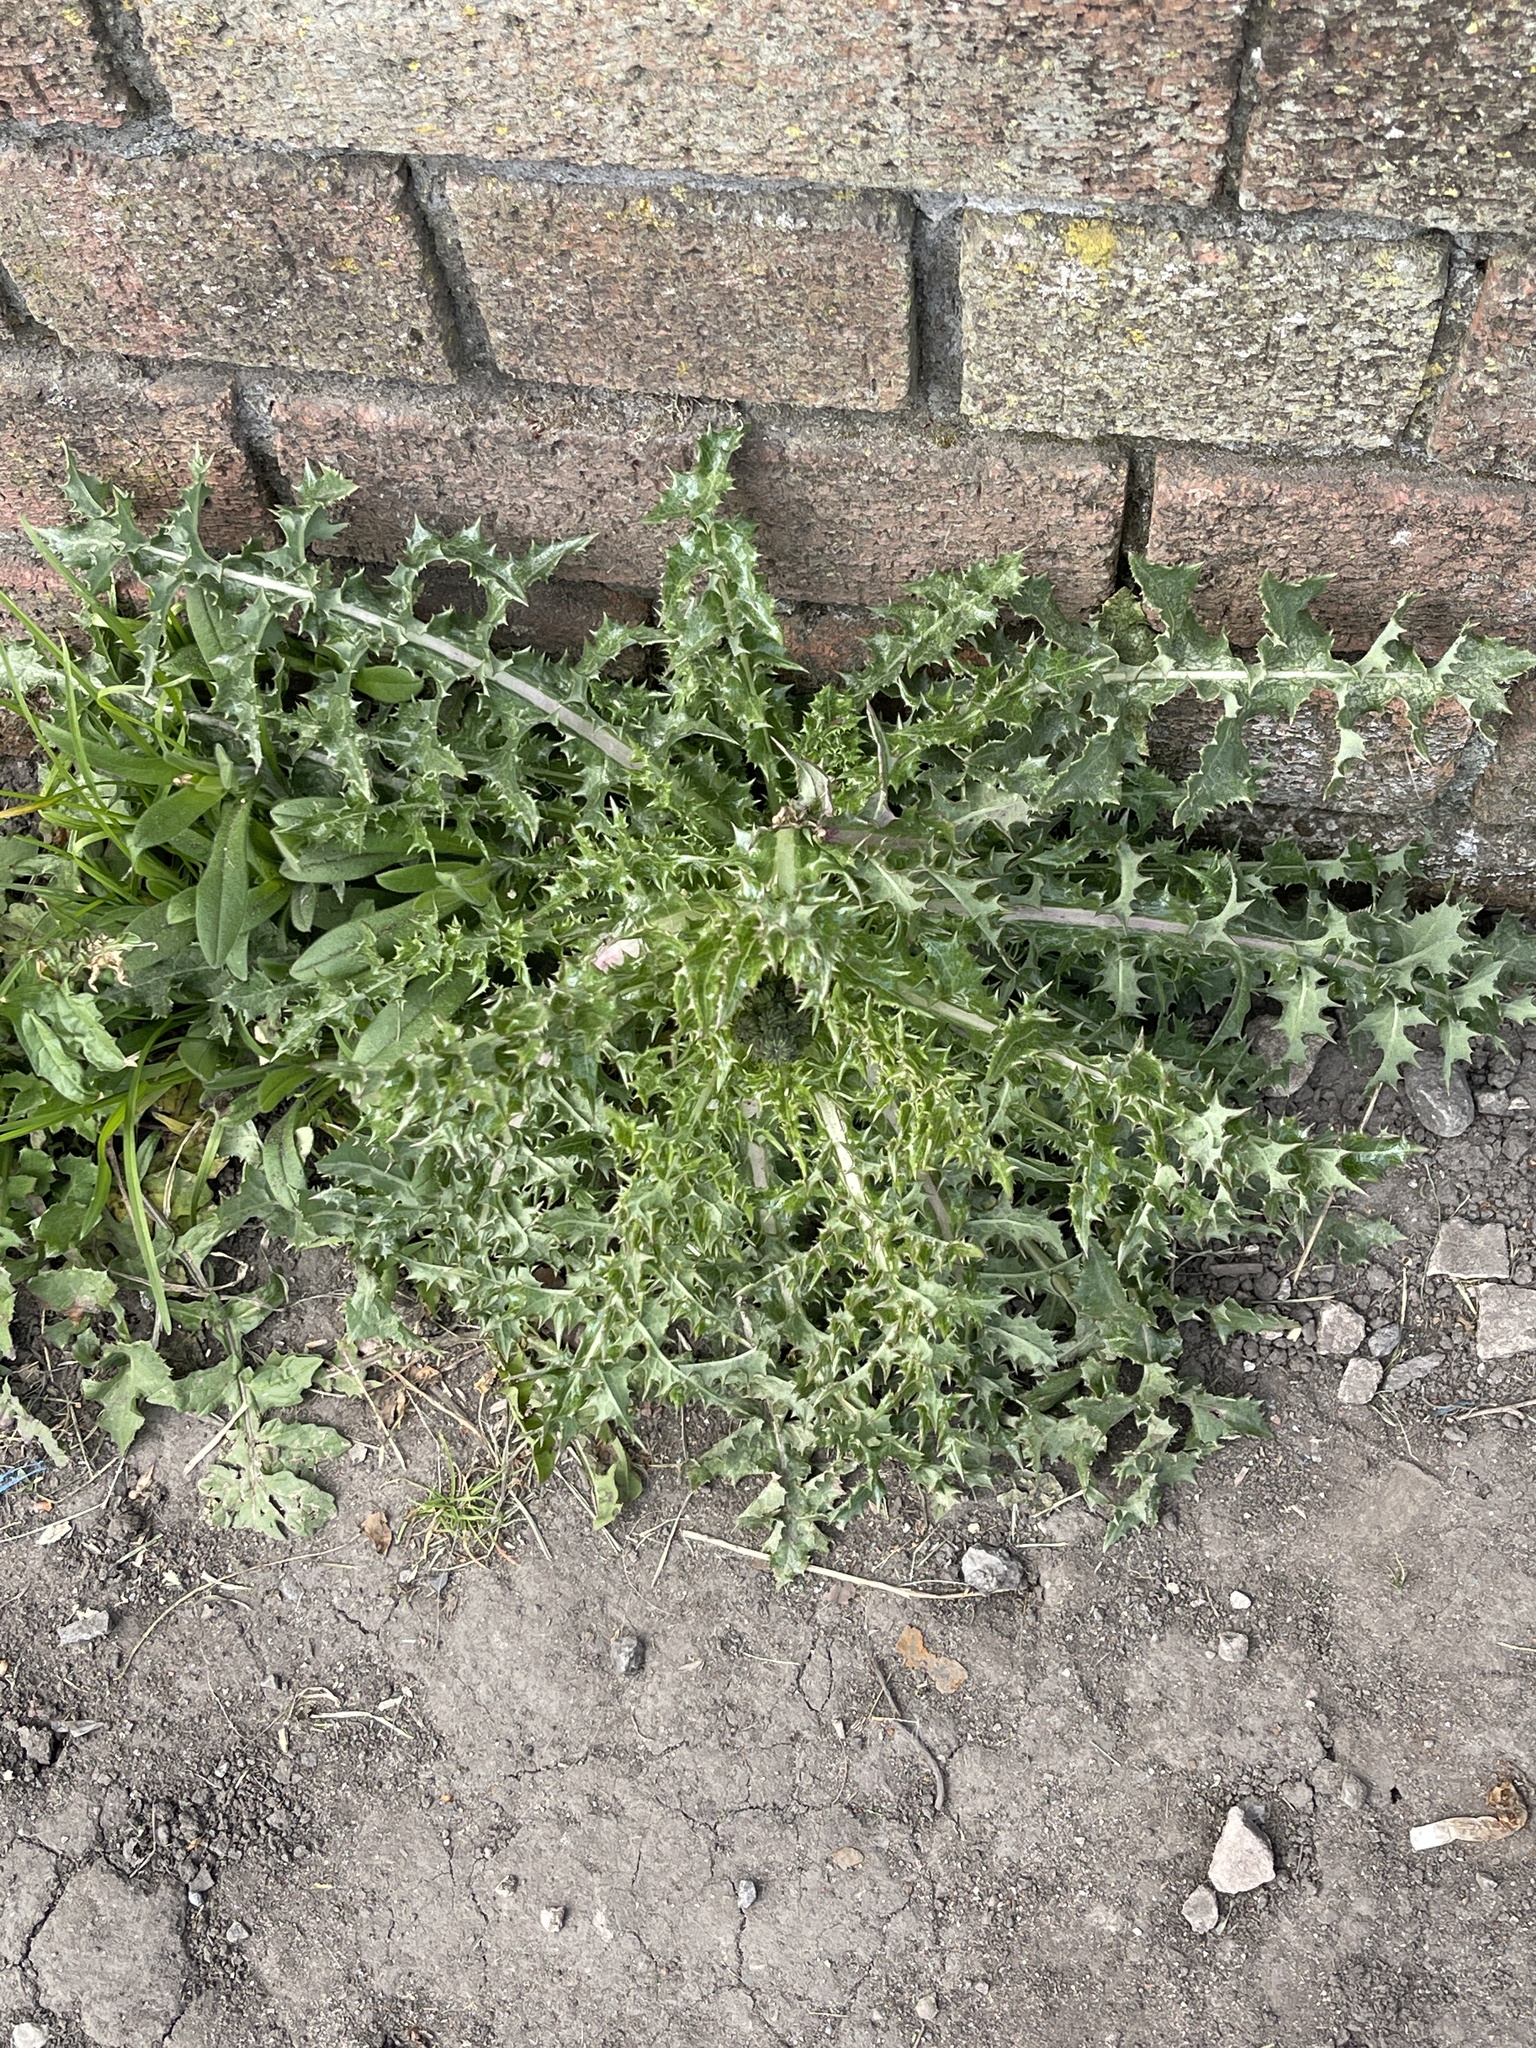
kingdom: Plantae
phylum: Tracheophyta
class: Magnoliopsida
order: Asterales
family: Asteraceae
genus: Sonchus
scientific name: Sonchus asper
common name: Prickly sow-thistle
